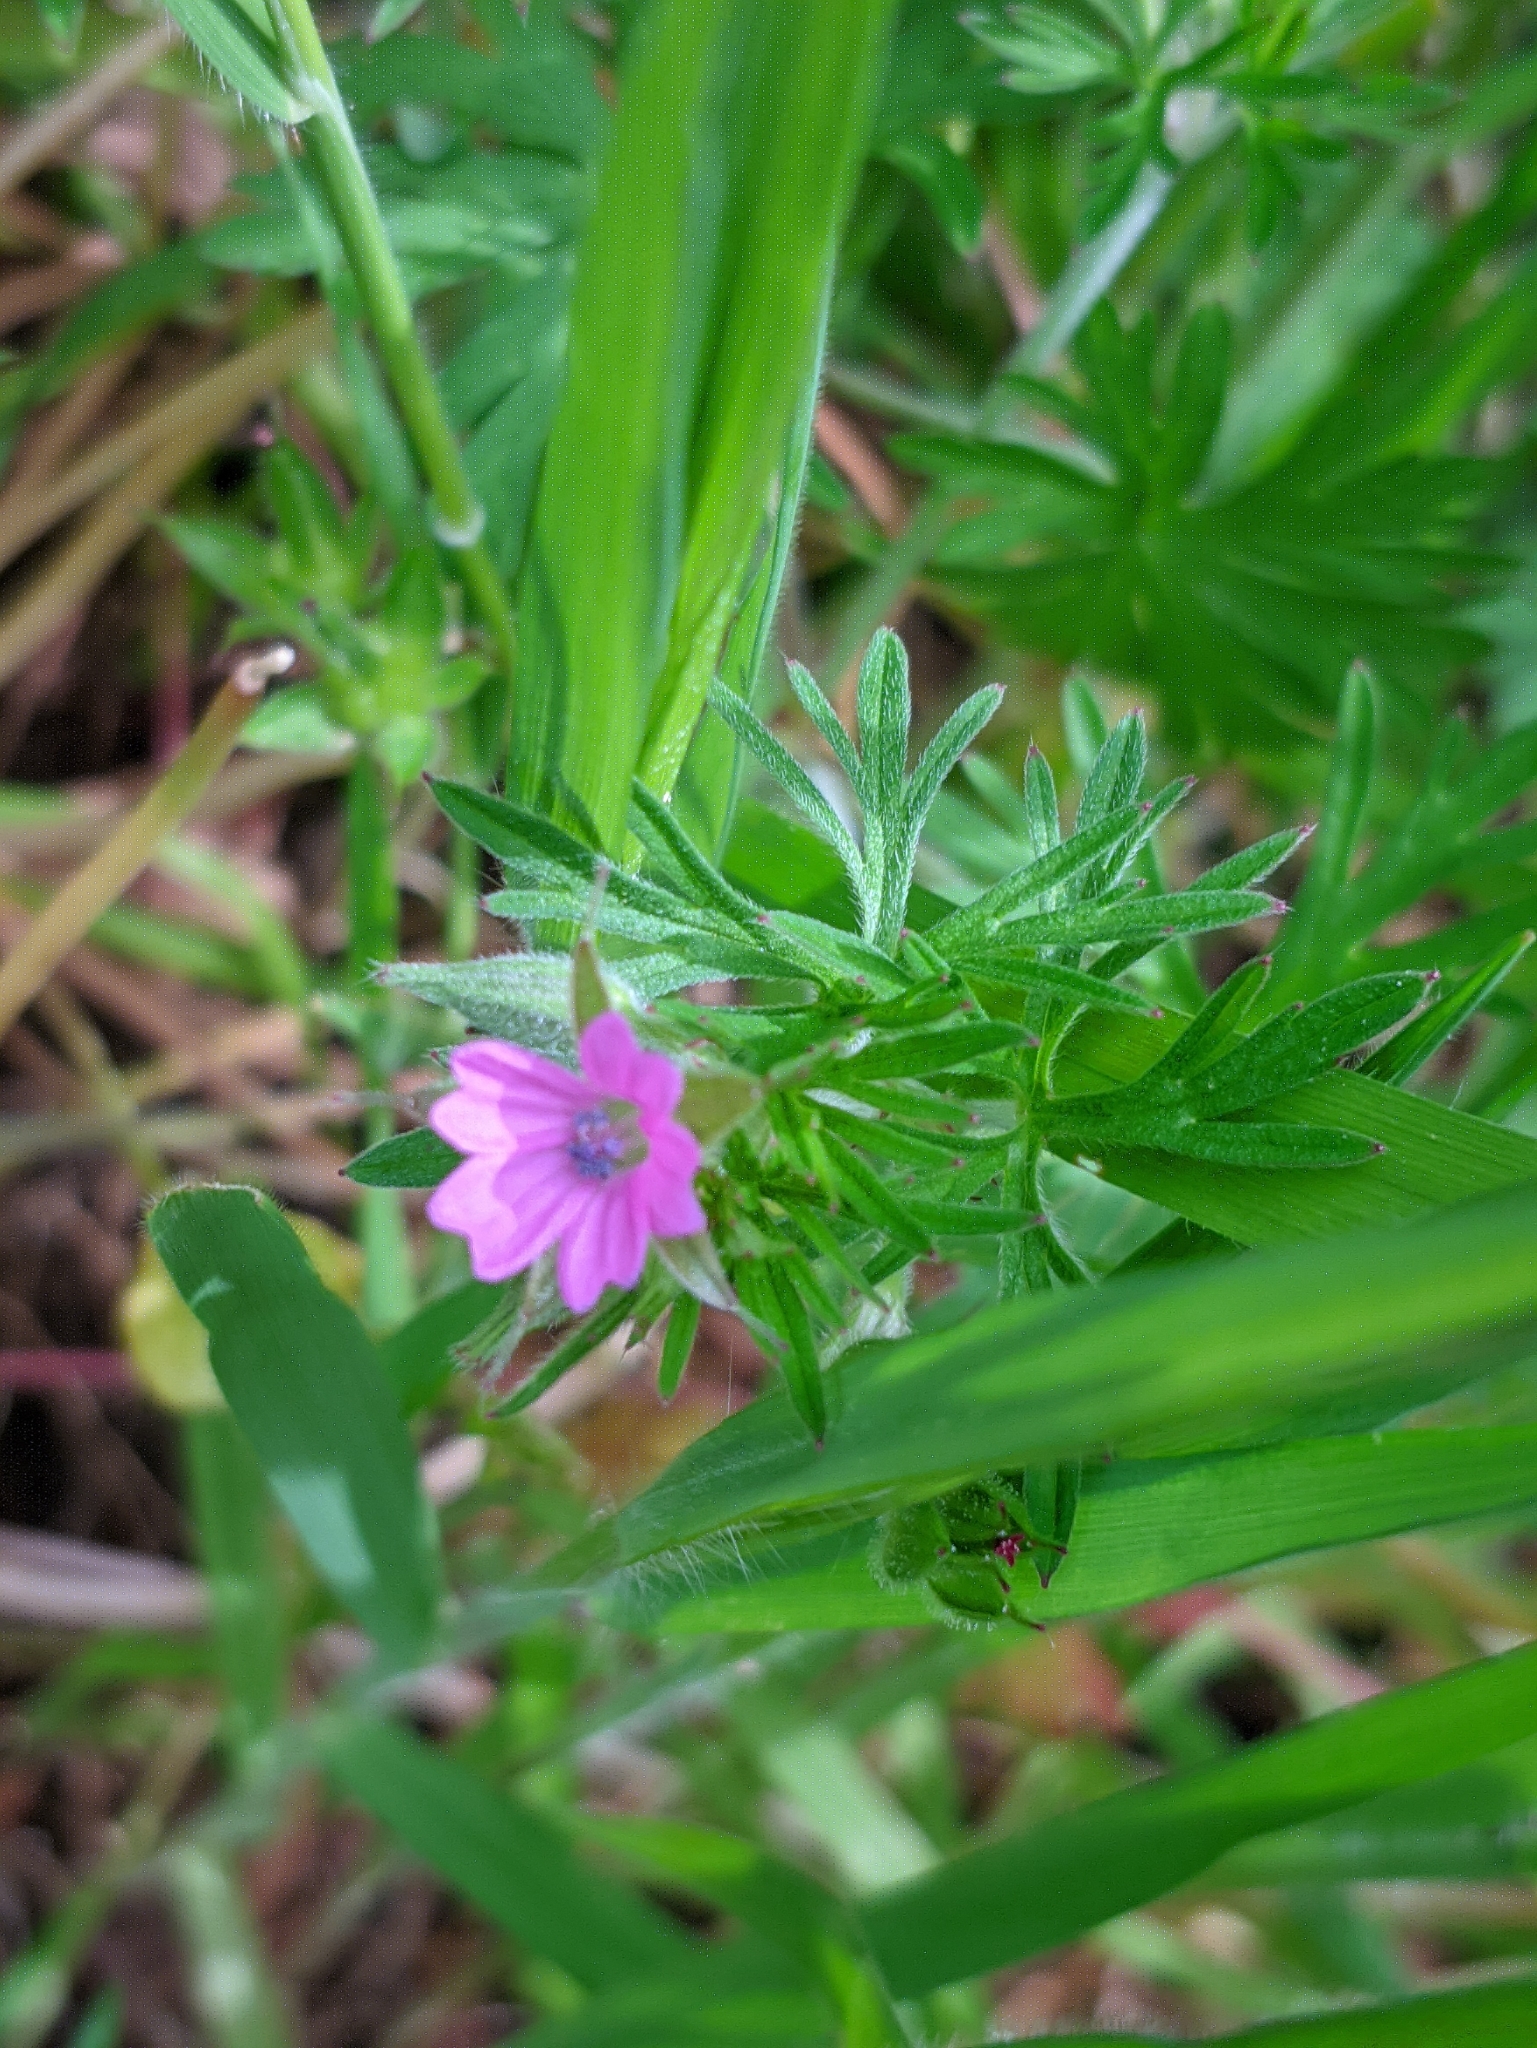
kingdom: Plantae
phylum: Tracheophyta
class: Magnoliopsida
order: Geraniales
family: Geraniaceae
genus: Geranium
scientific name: Geranium dissectum
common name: Cut-leaved crane's-bill
